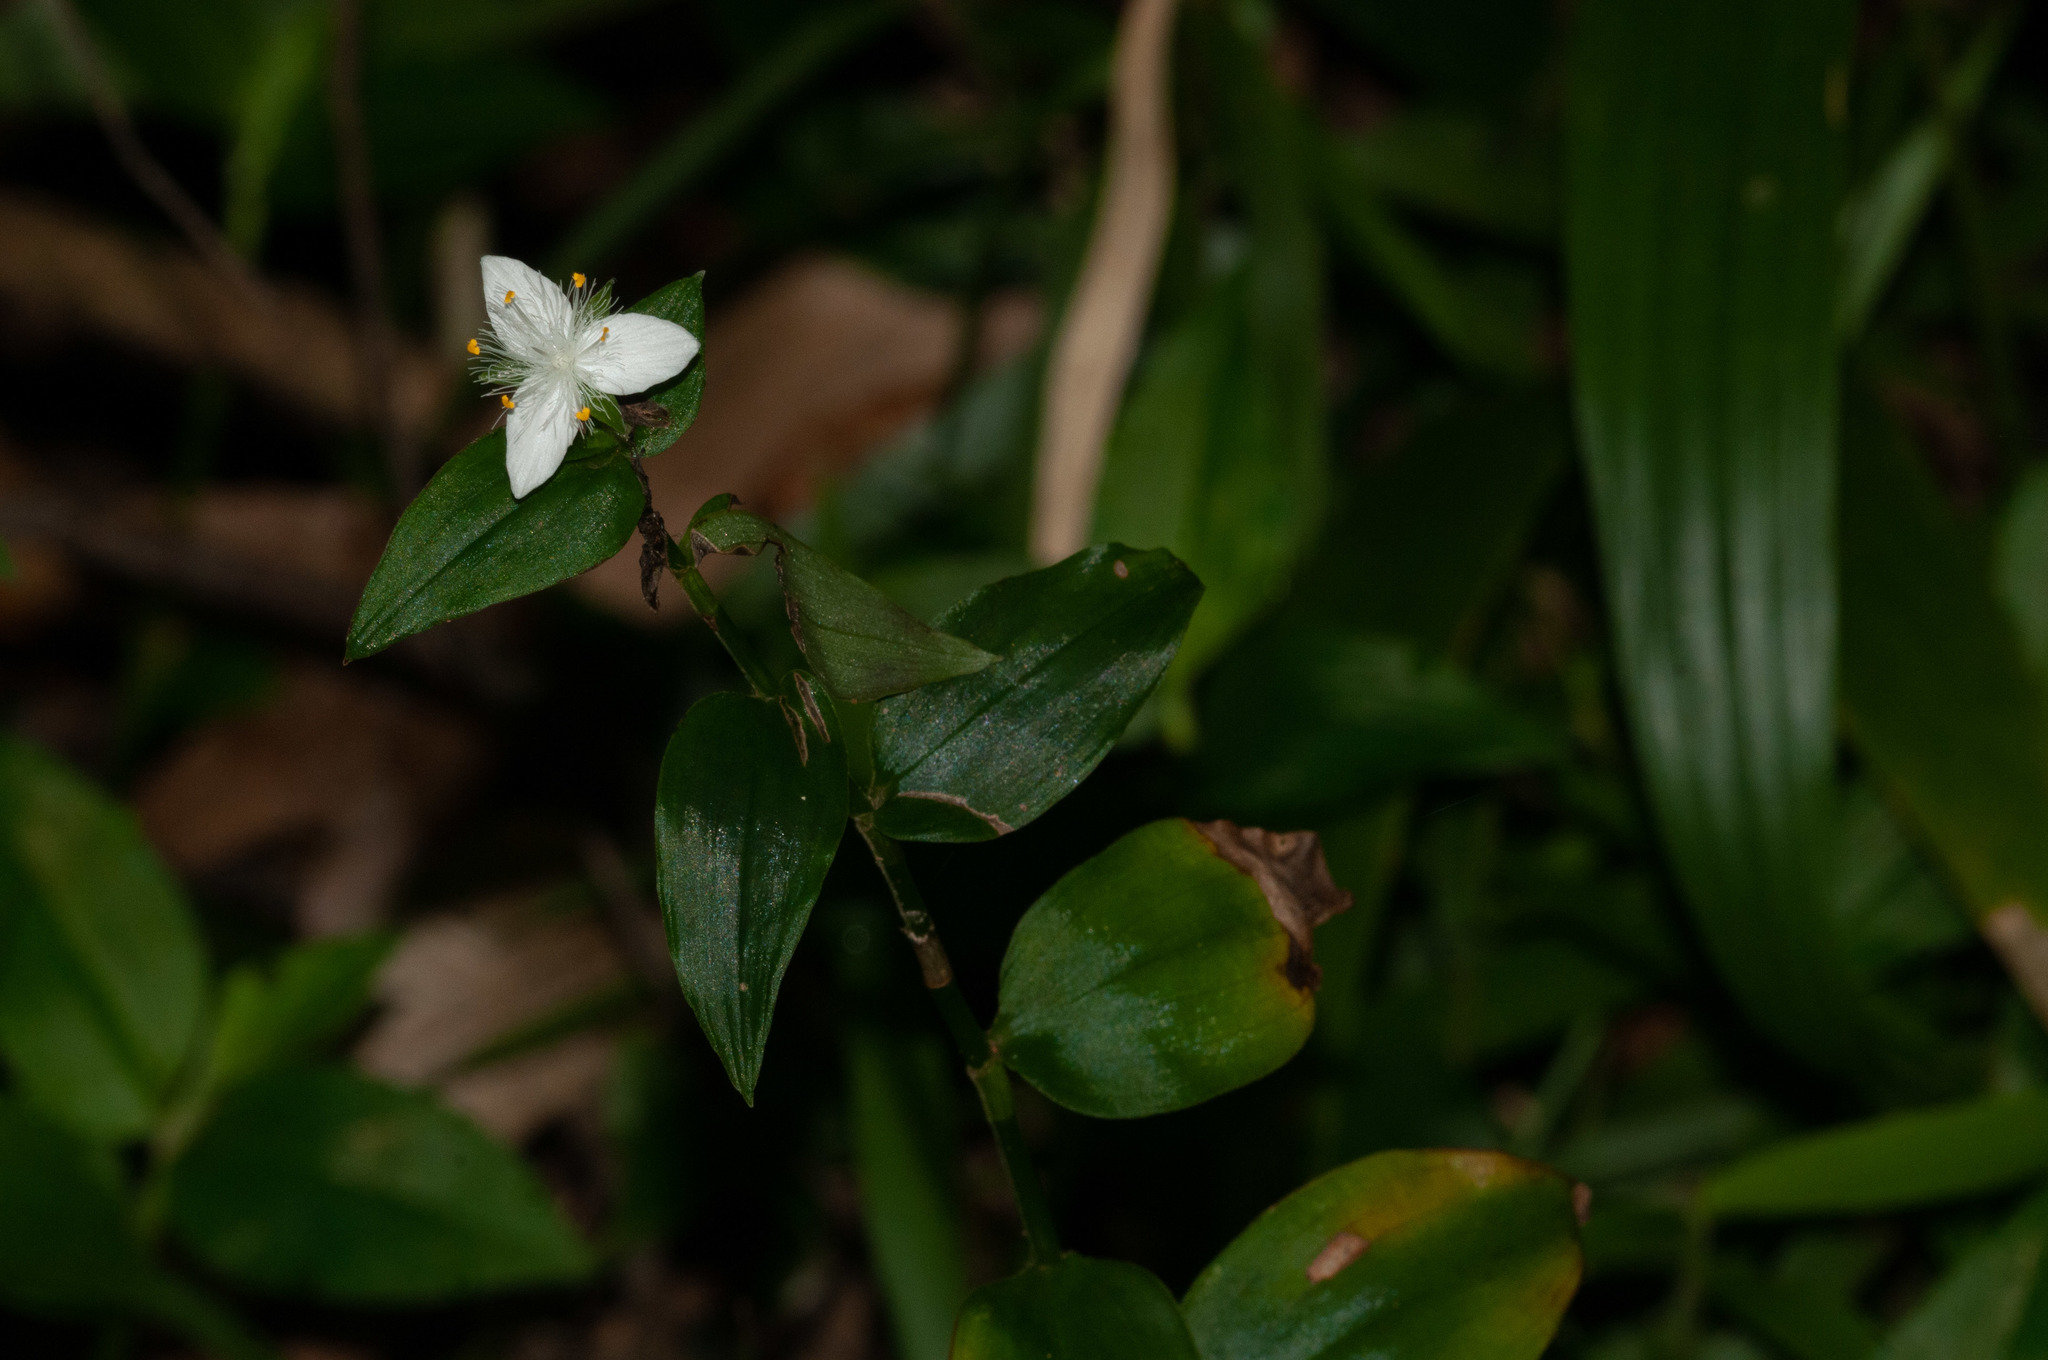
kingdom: Plantae
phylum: Tracheophyta
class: Liliopsida
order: Commelinales
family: Commelinaceae
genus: Tradescantia
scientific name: Tradescantia fluminensis
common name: Wandering-jew
